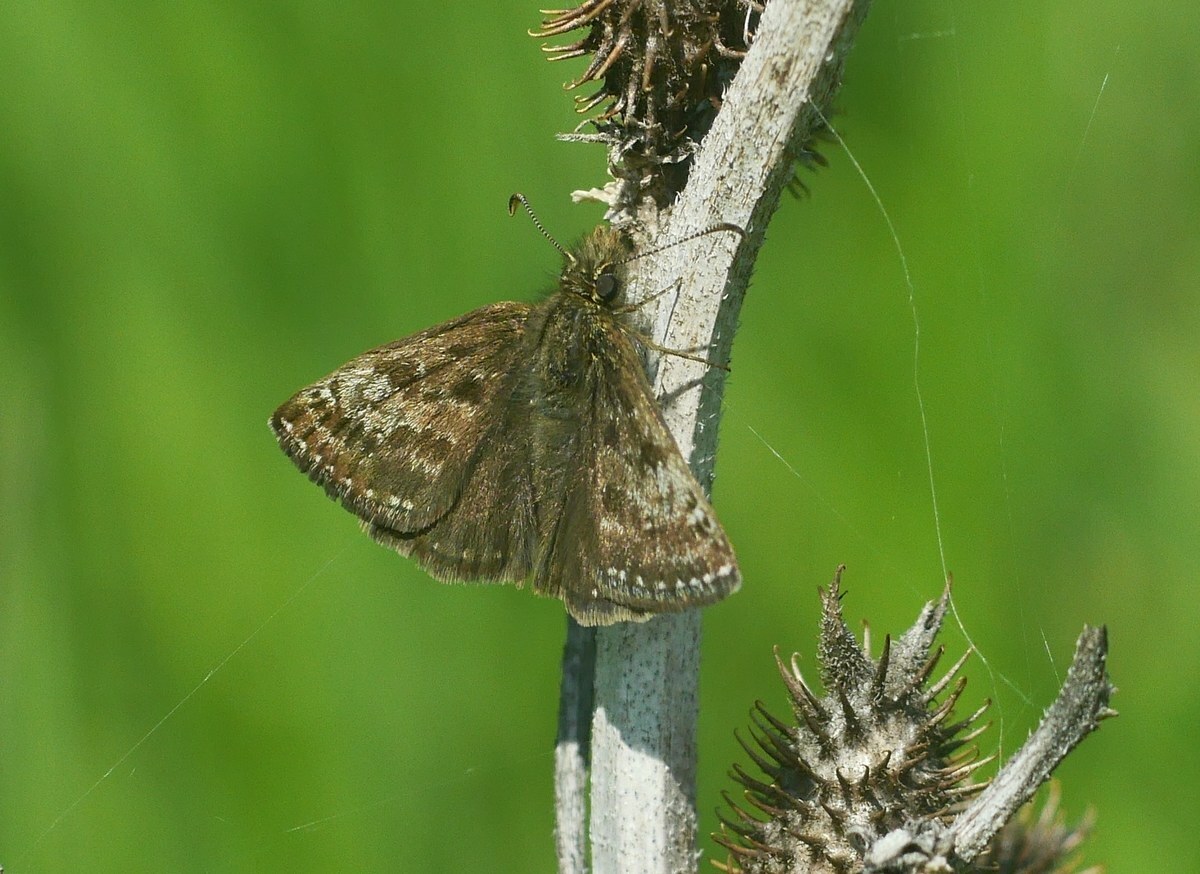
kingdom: Animalia
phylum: Arthropoda
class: Insecta
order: Lepidoptera
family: Hesperiidae
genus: Erynnis
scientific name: Erynnis tages
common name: Dingy skipper
